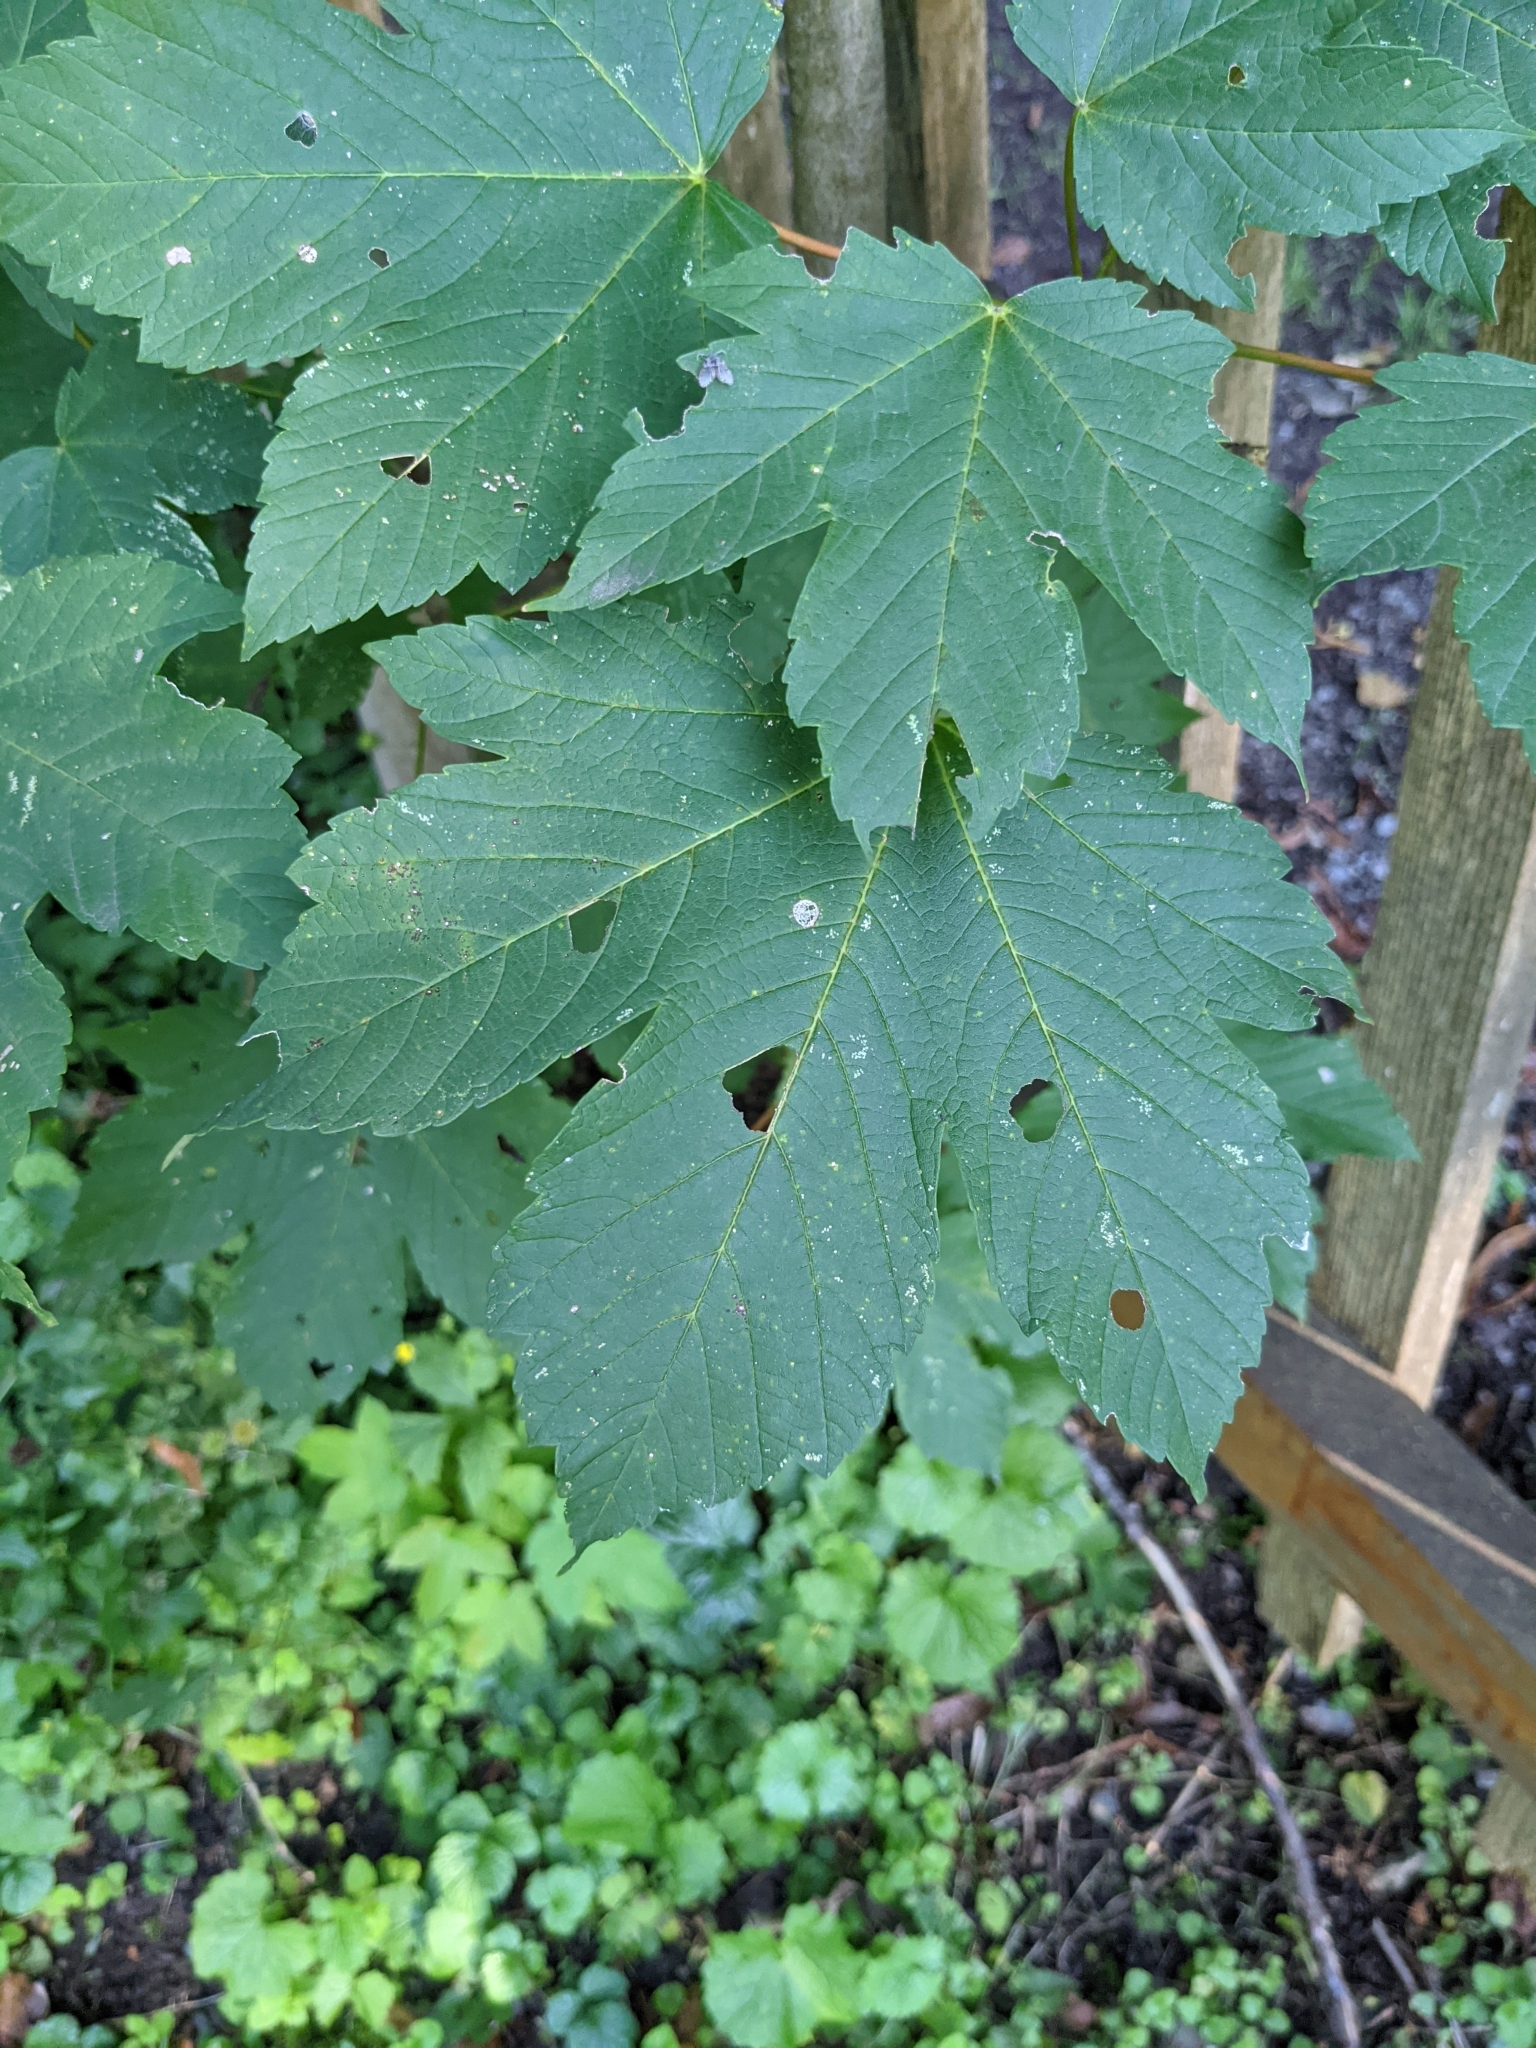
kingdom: Plantae
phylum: Tracheophyta
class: Magnoliopsida
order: Sapindales
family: Sapindaceae
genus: Acer
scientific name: Acer pseudoplatanus
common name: Sycamore
